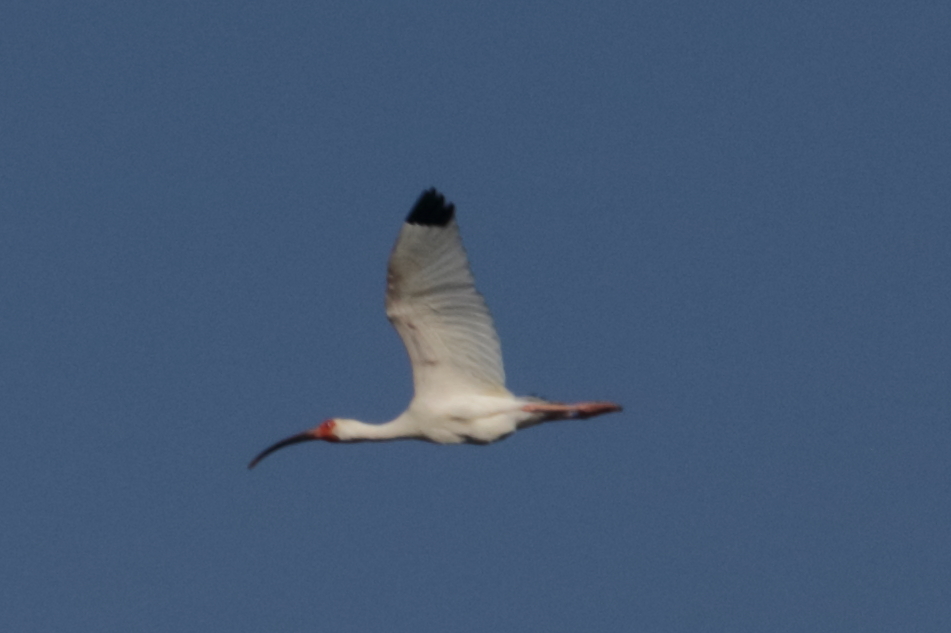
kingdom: Animalia
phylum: Chordata
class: Aves
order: Pelecaniformes
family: Threskiornithidae
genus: Eudocimus
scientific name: Eudocimus albus
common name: White ibis
